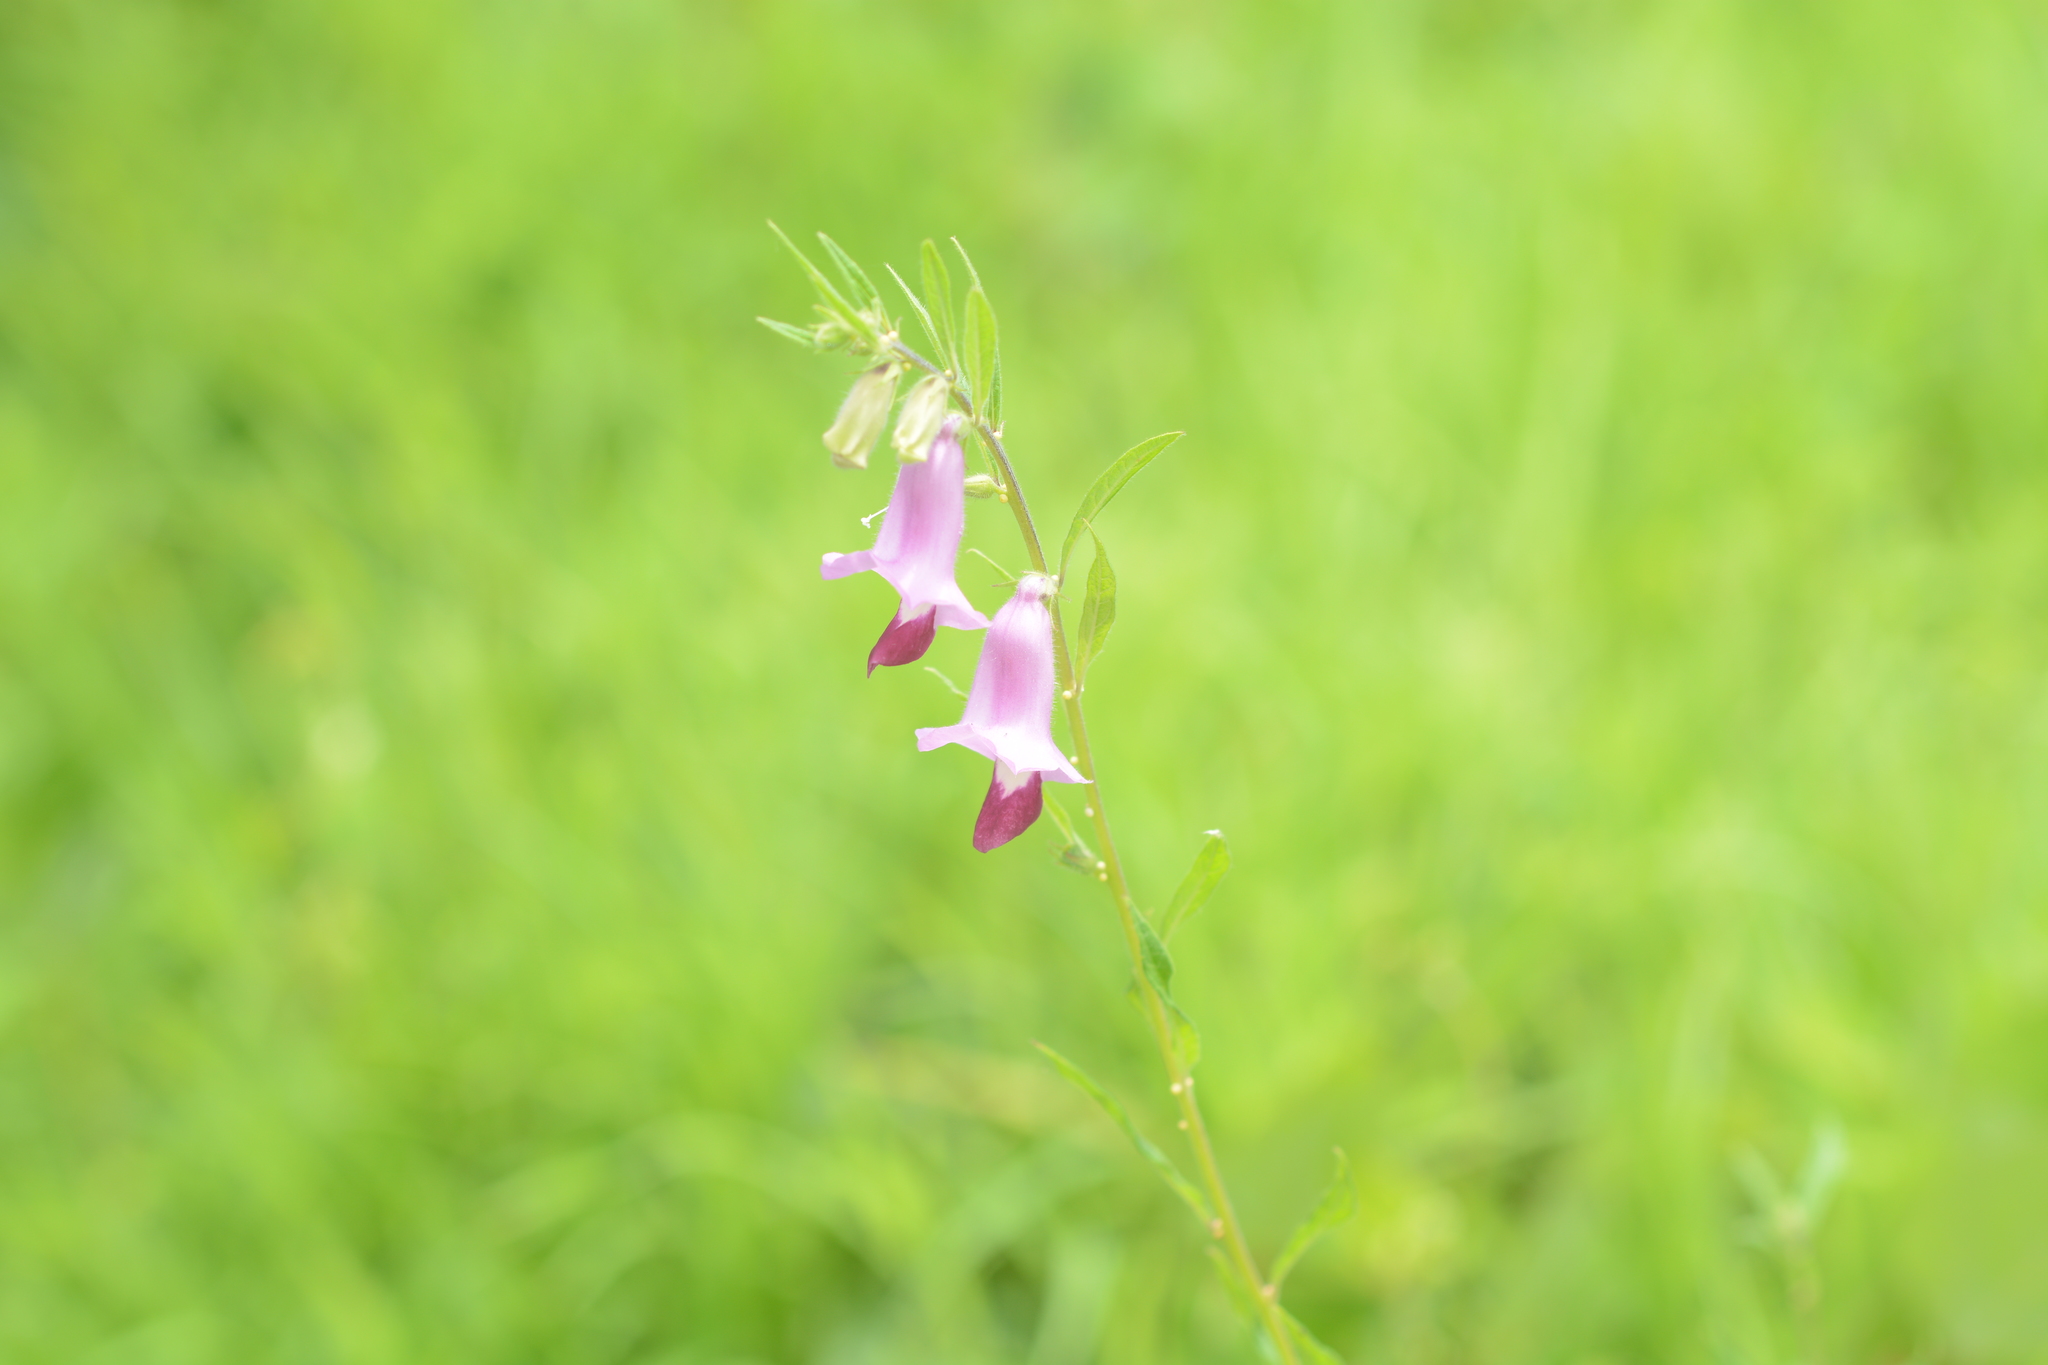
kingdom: Plantae
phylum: Tracheophyta
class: Magnoliopsida
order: Lamiales
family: Pedaliaceae
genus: Sesamum
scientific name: Sesamum indicum
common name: Sesame
